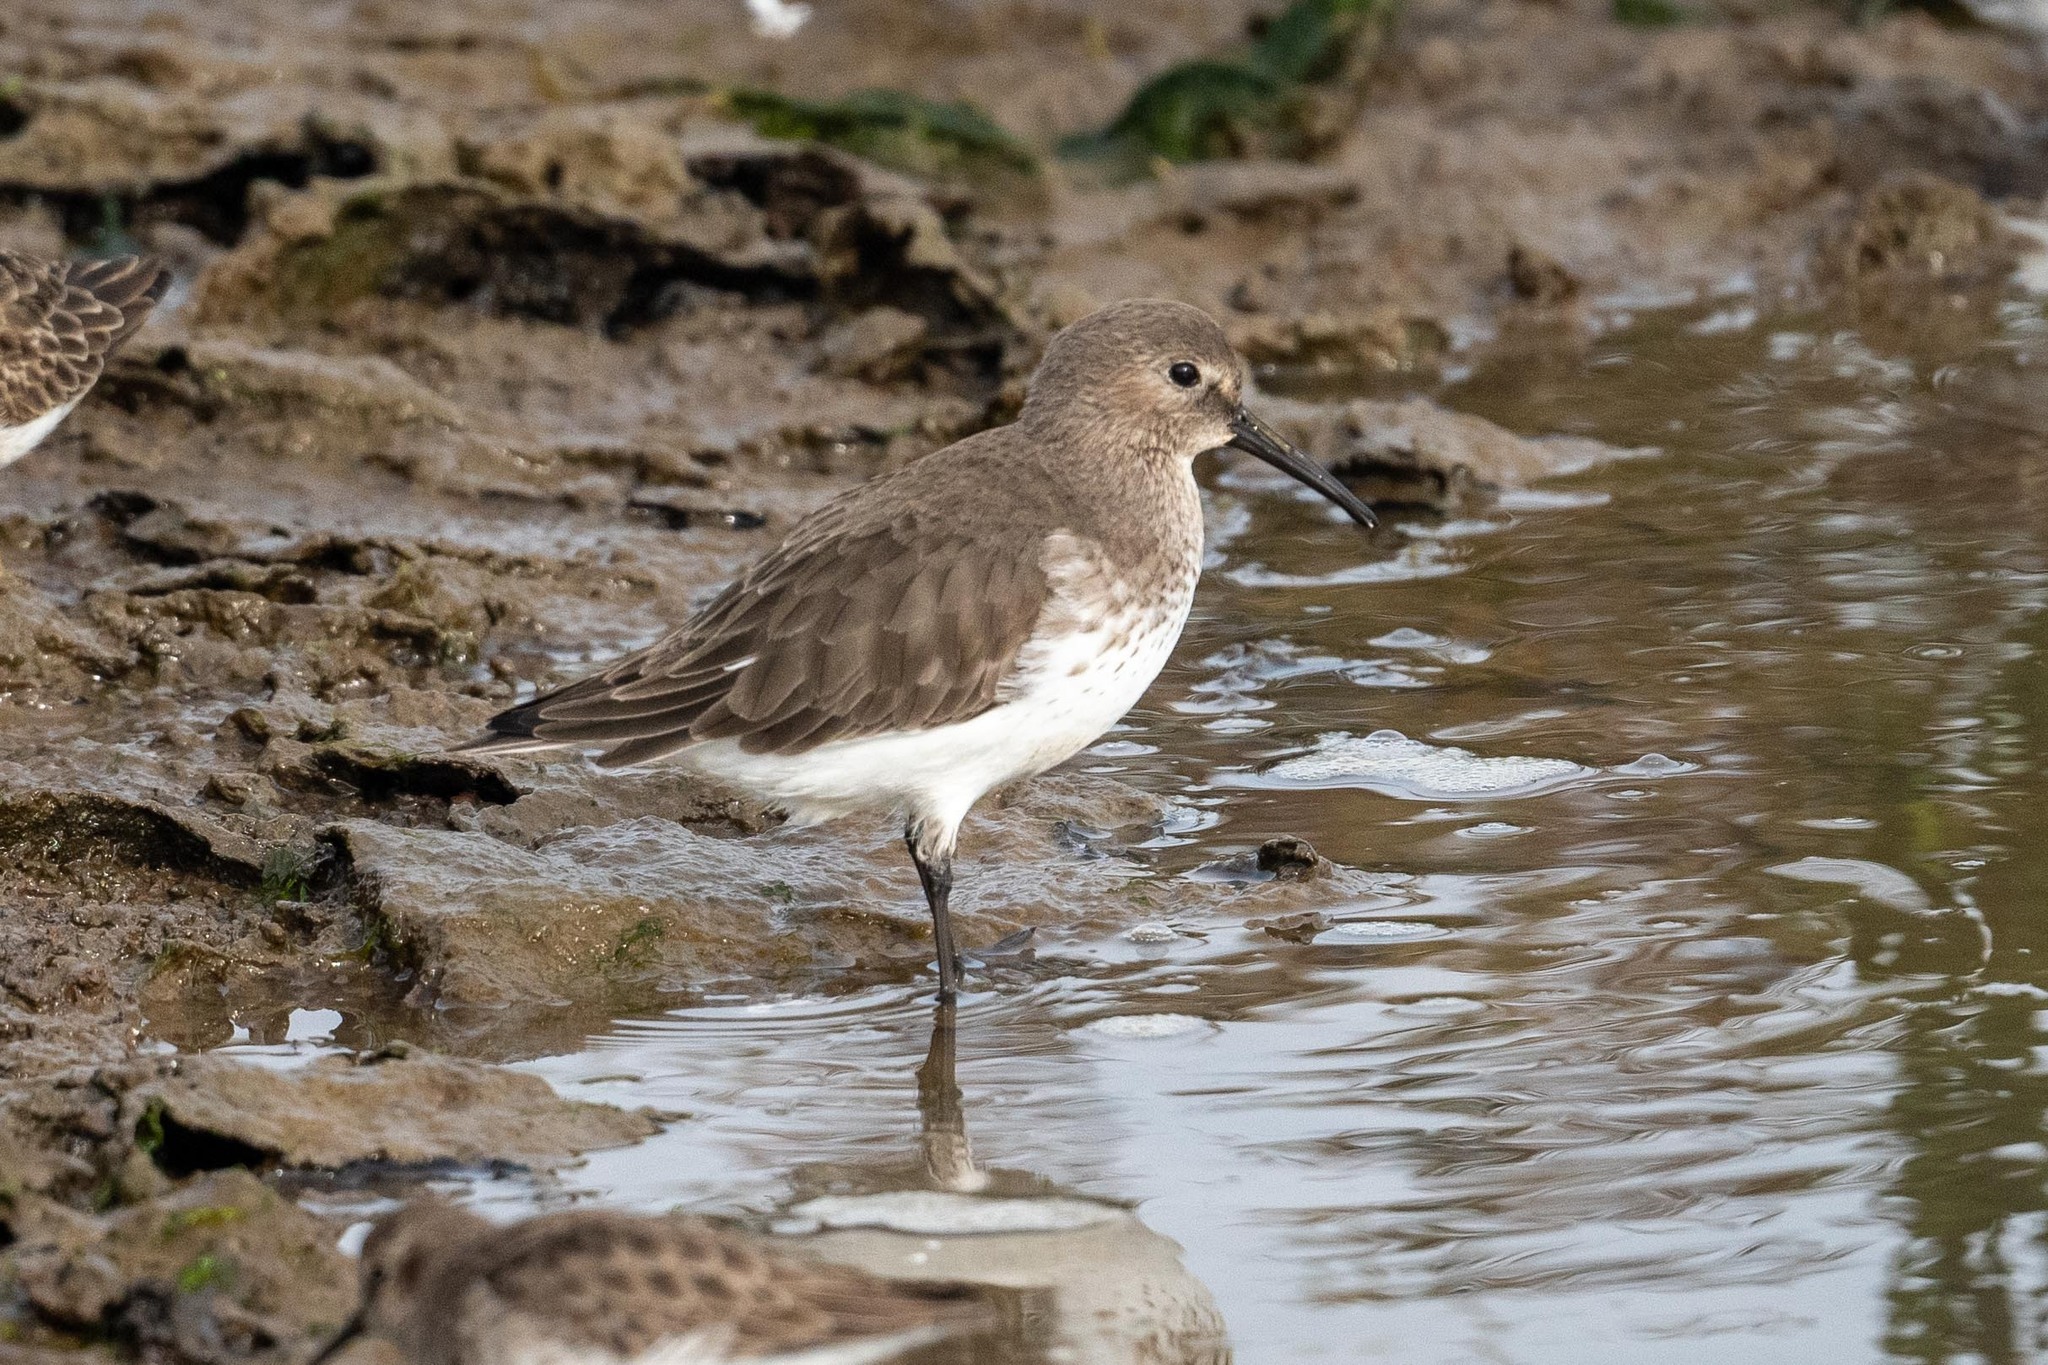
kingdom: Animalia
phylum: Chordata
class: Aves
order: Charadriiformes
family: Scolopacidae
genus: Calidris
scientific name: Calidris alpina
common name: Dunlin
